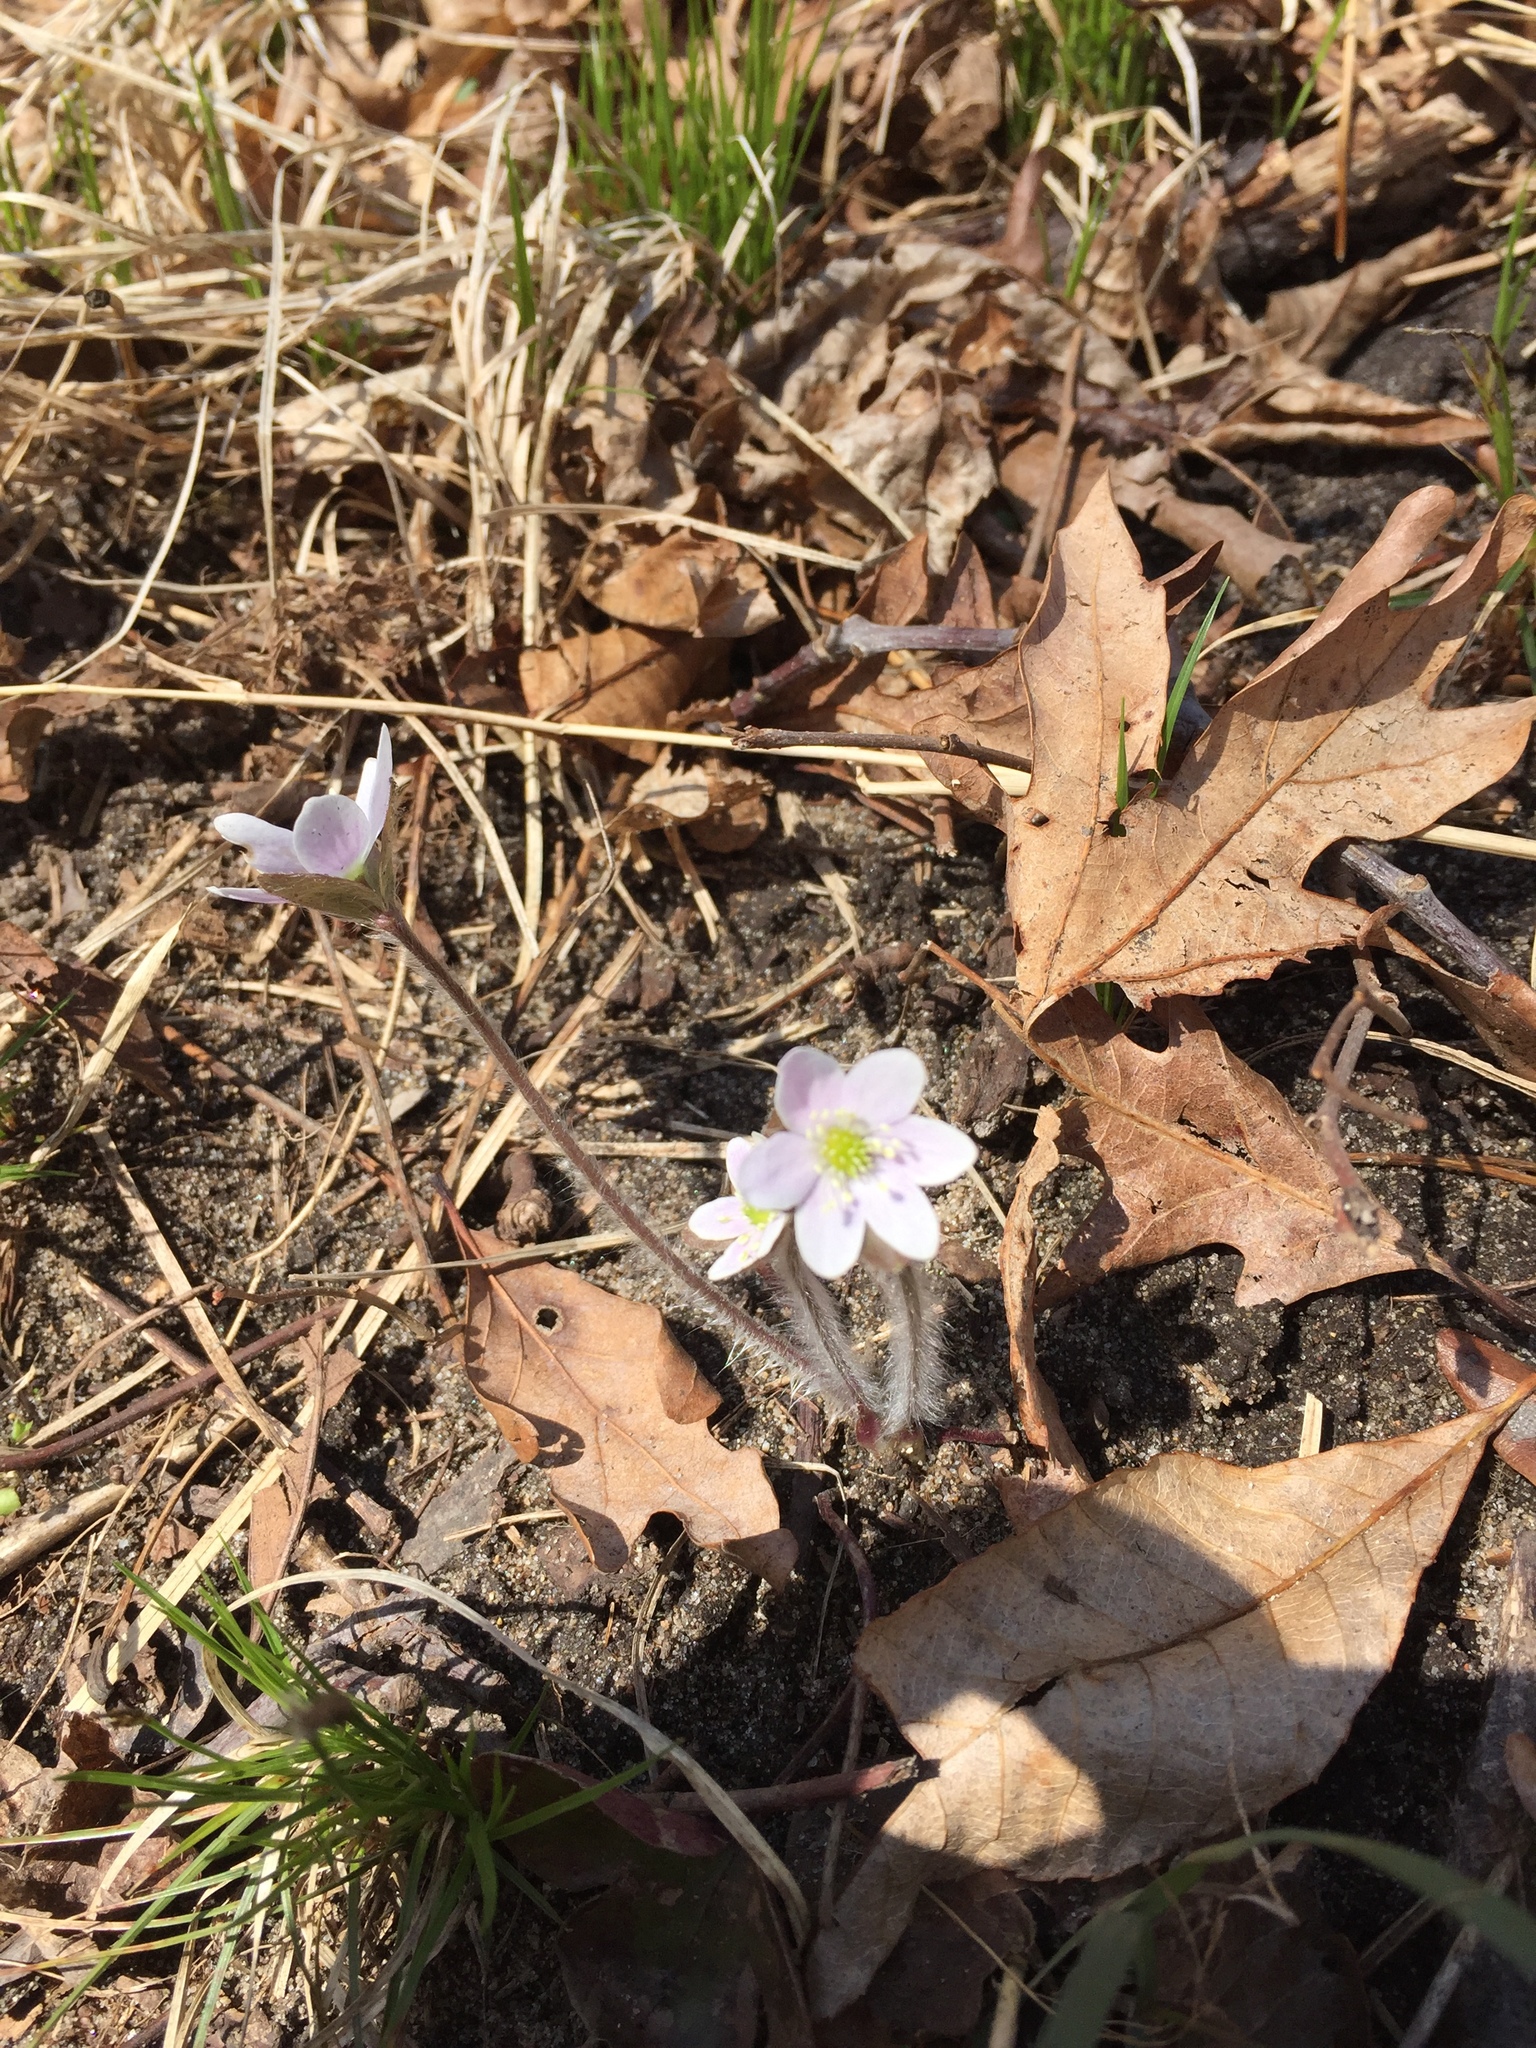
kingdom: Plantae
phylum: Tracheophyta
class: Magnoliopsida
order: Ranunculales
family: Ranunculaceae
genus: Hepatica
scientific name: Hepatica americana
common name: American hepatica
